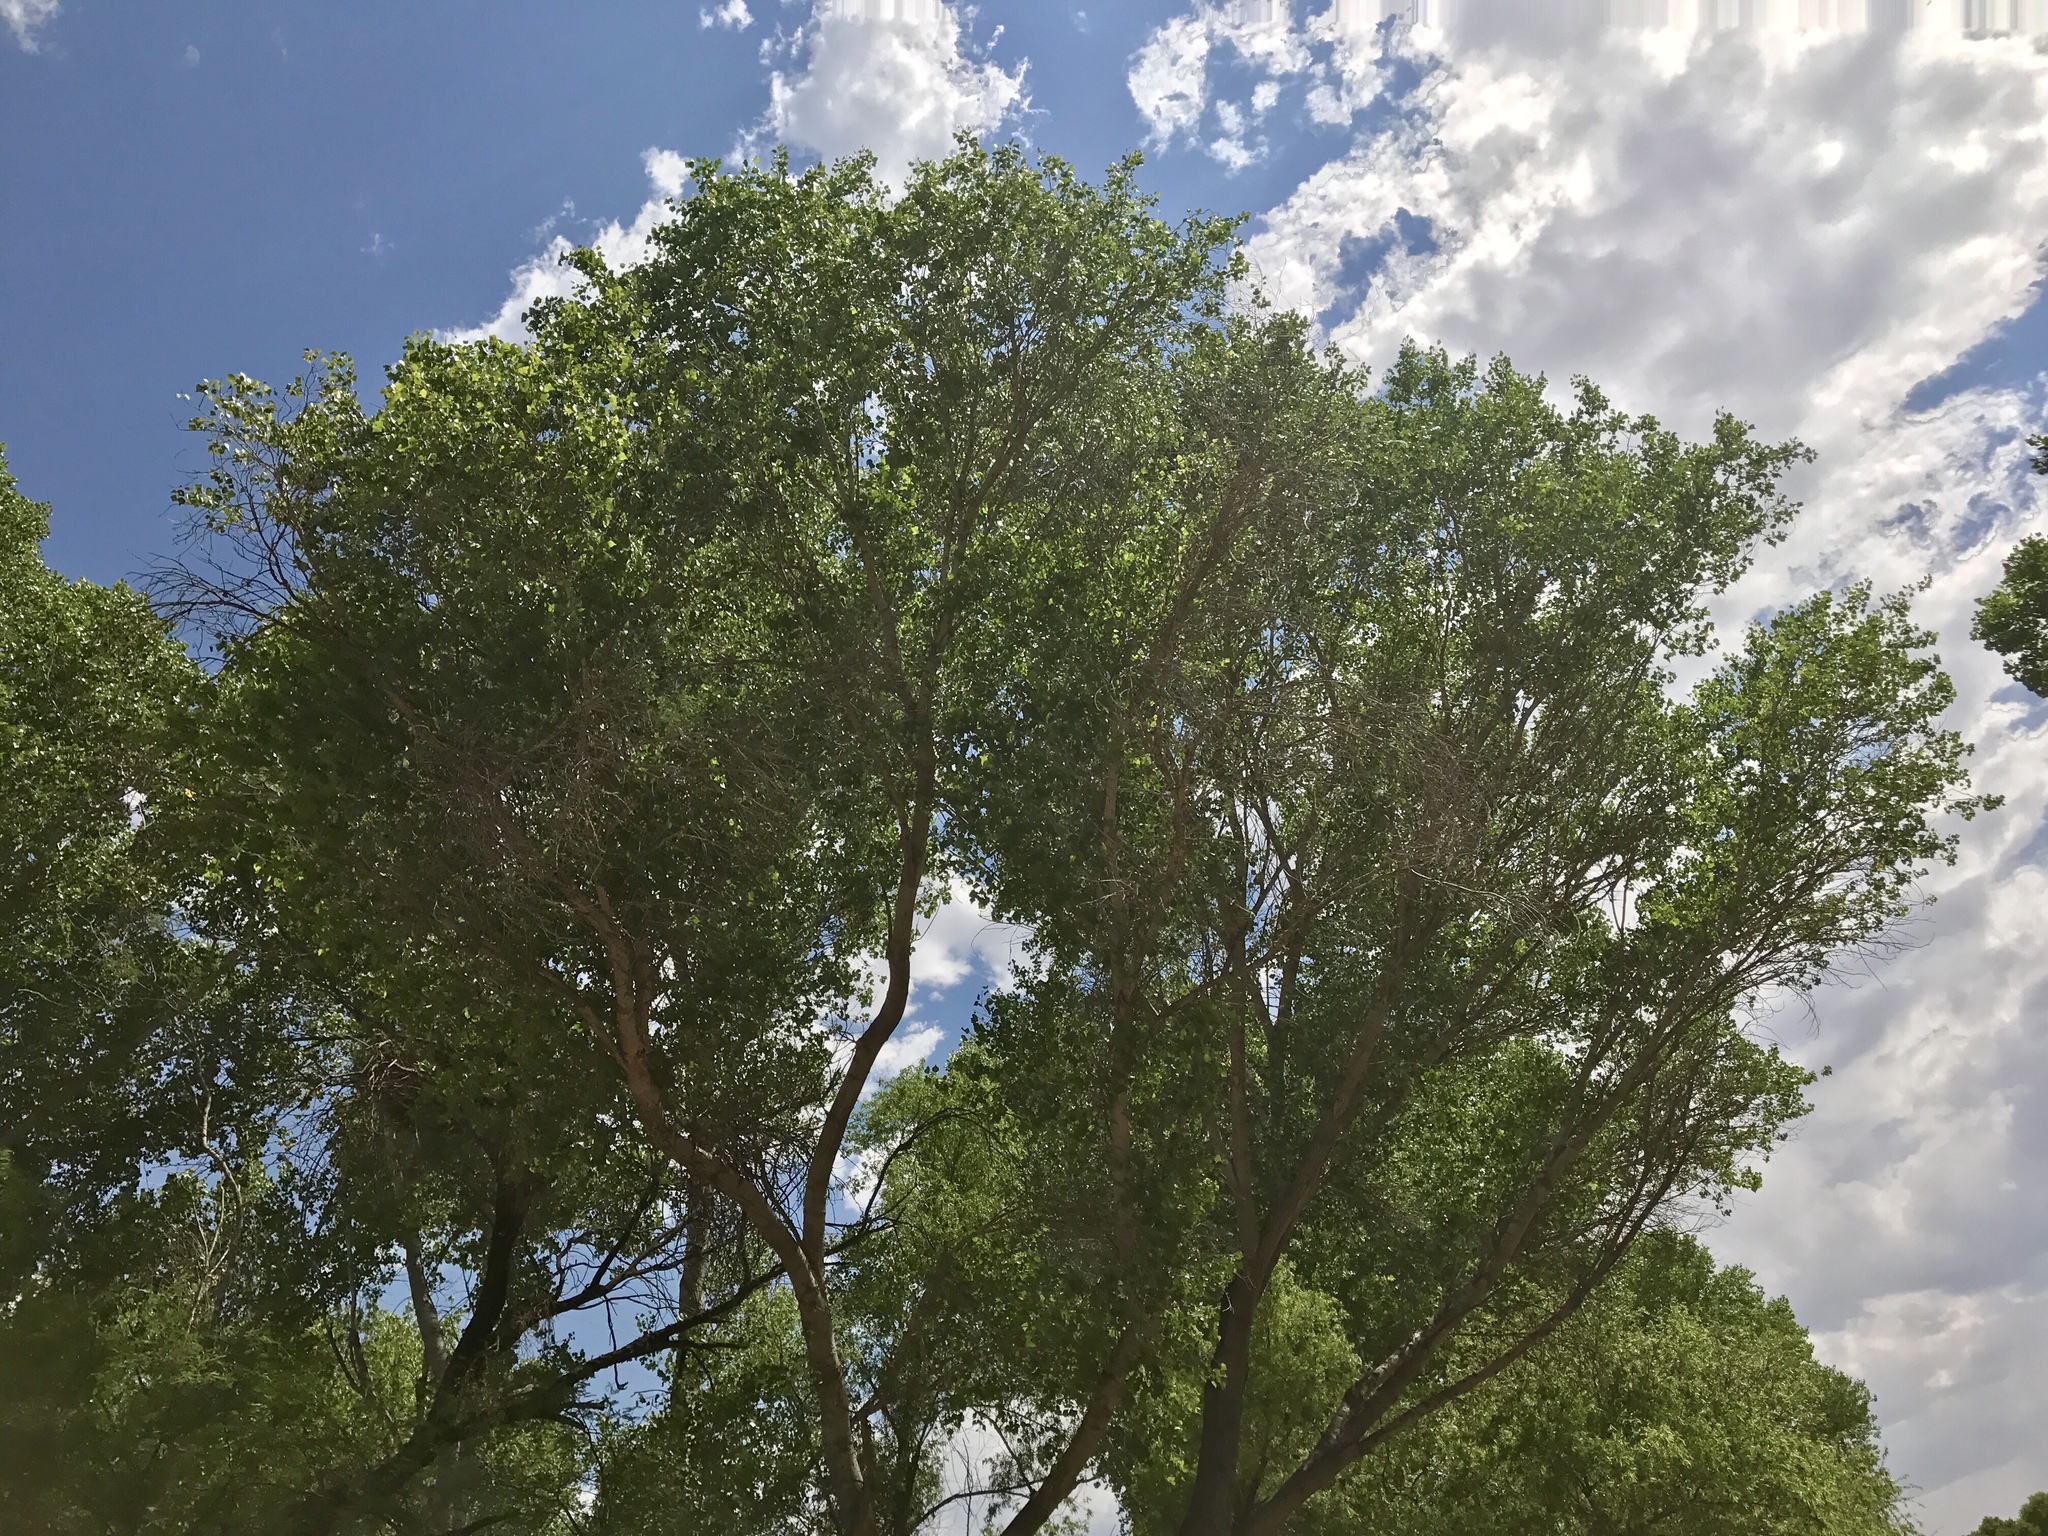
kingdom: Plantae
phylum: Tracheophyta
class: Magnoliopsida
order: Malpighiales
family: Salicaceae
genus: Populus
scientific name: Populus fremontii
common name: Fremont's cottonwood
